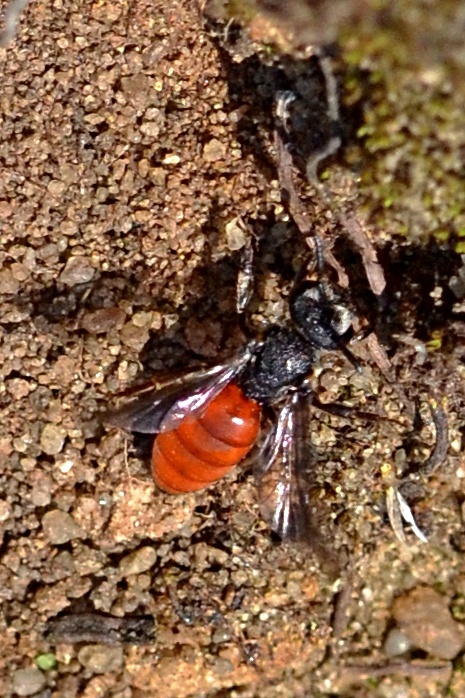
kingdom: Animalia
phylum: Arthropoda
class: Insecta
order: Hymenoptera
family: Halictidae
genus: Sphecodes
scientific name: Sphecodes albilabris
